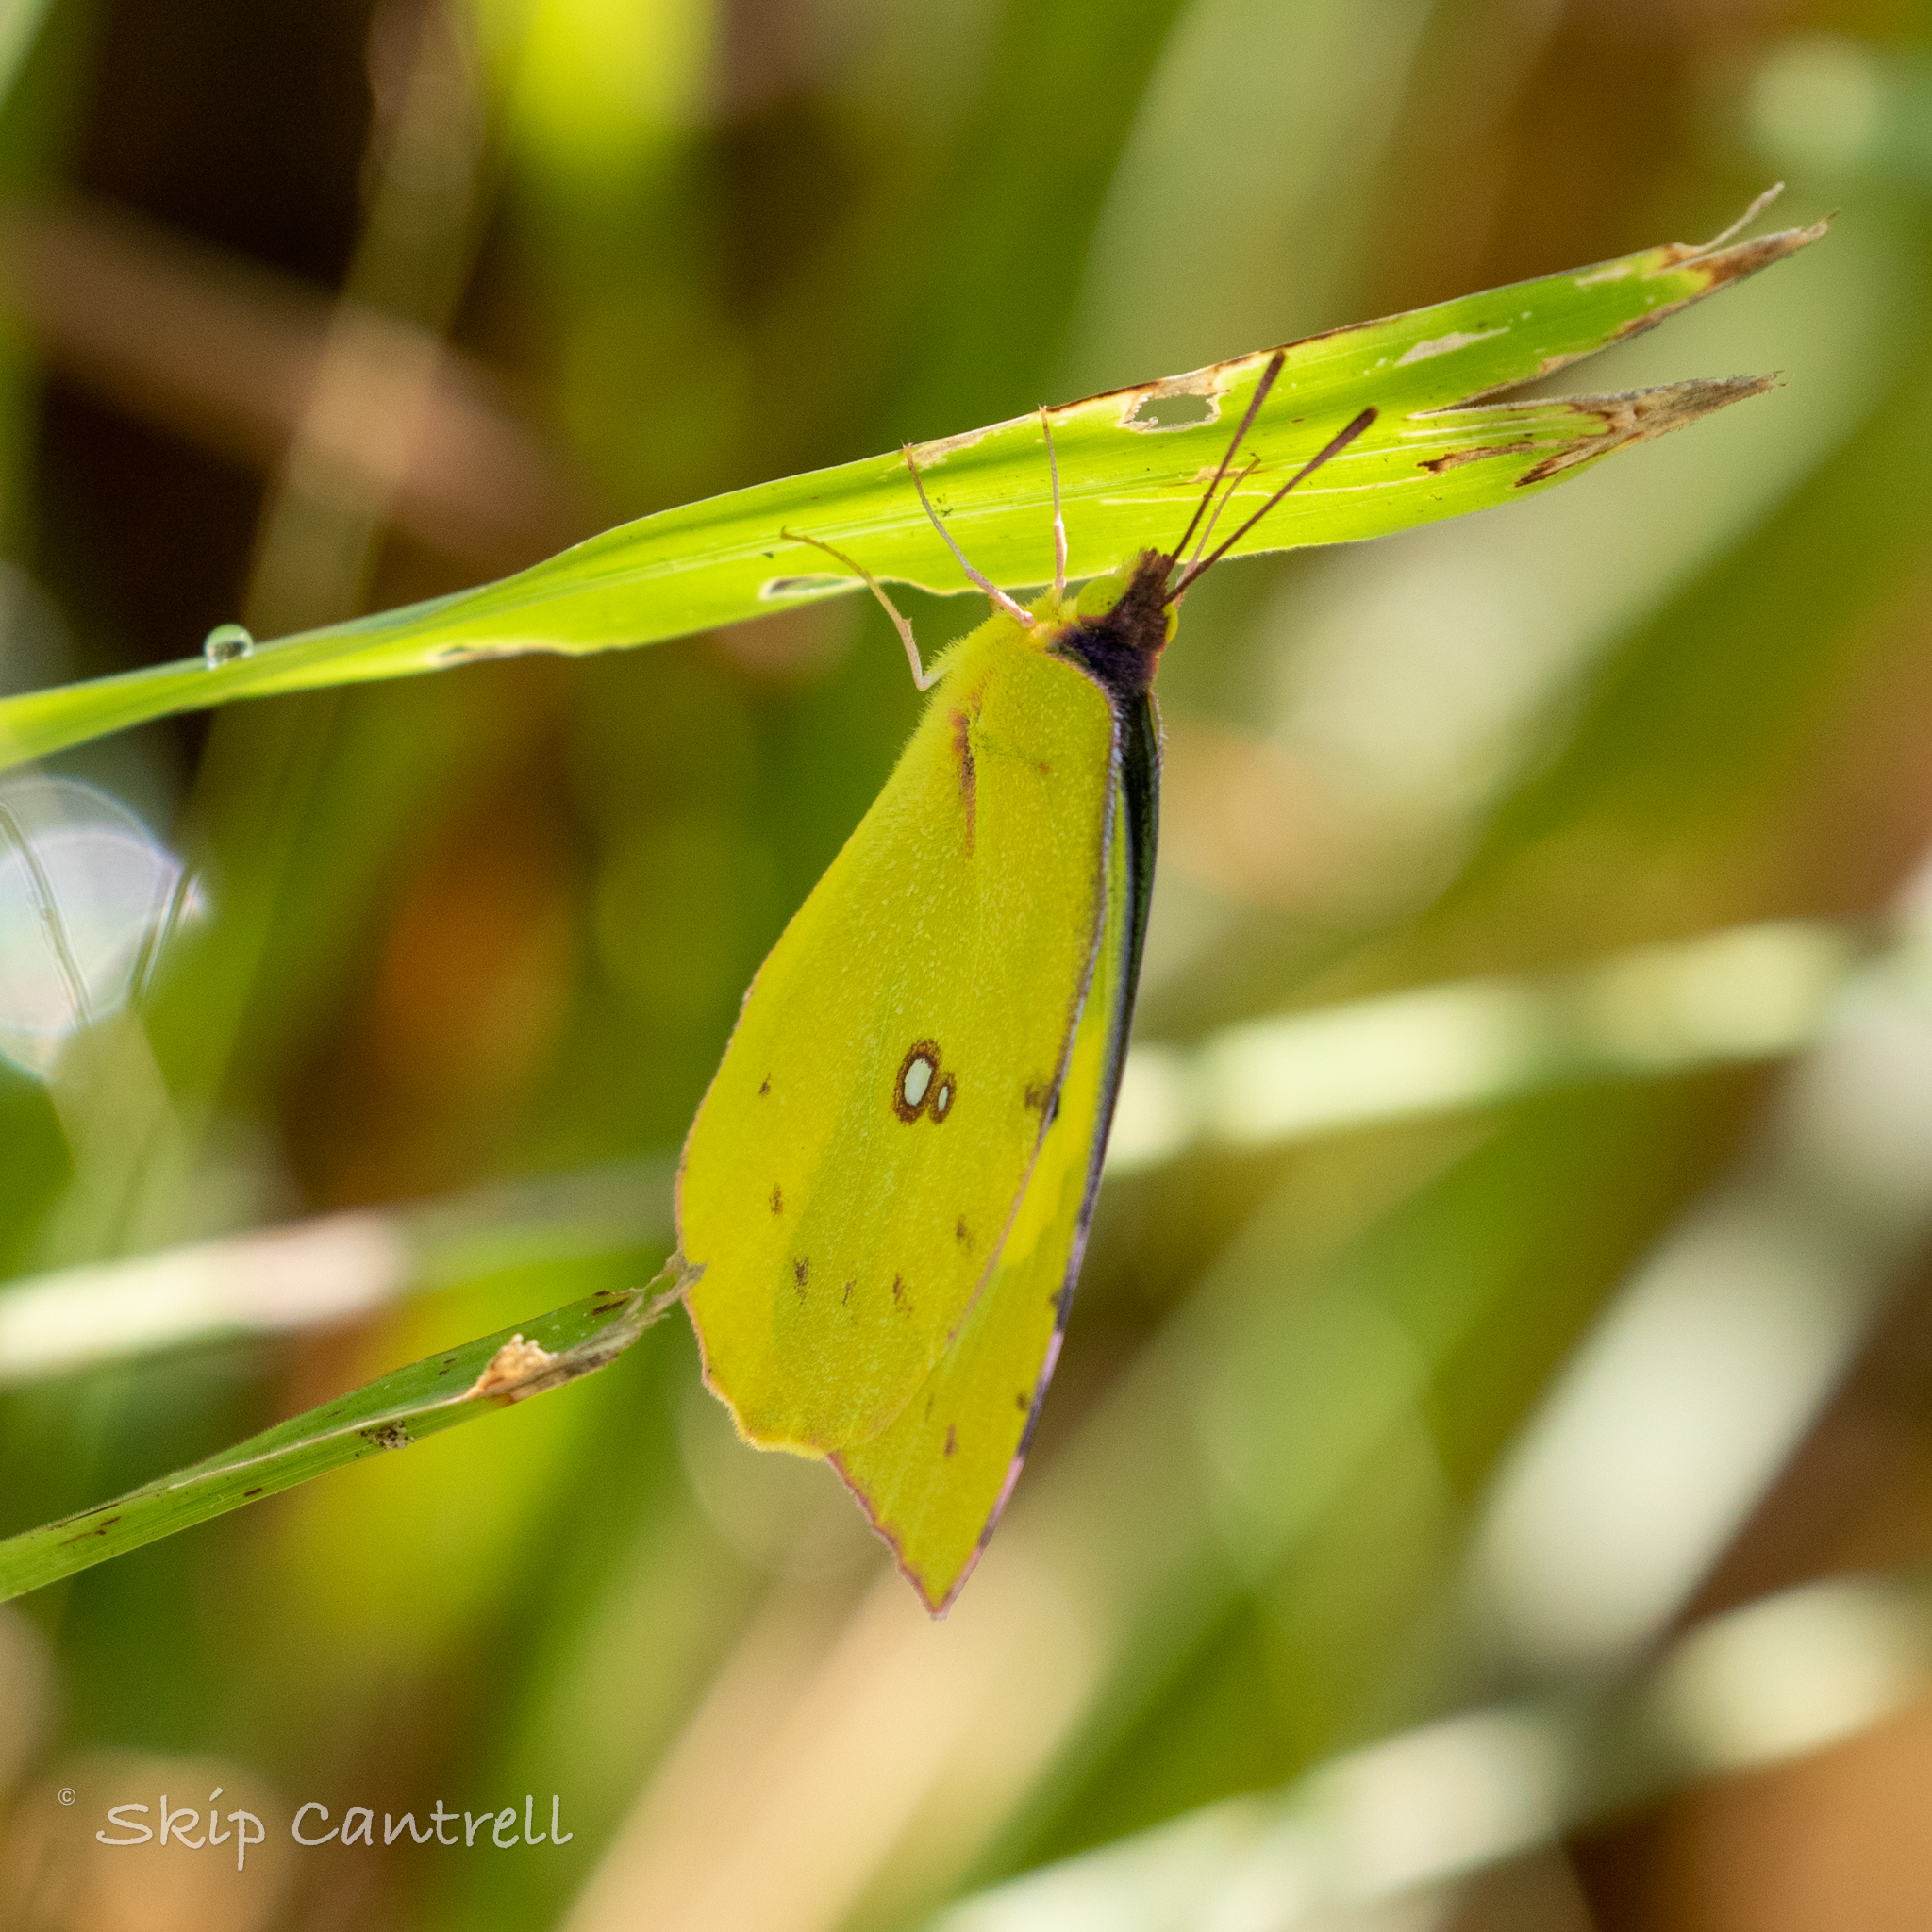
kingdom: Animalia
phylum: Arthropoda
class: Insecta
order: Lepidoptera
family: Pieridae
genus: Zerene
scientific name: Zerene cesonia
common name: Southern dogface
